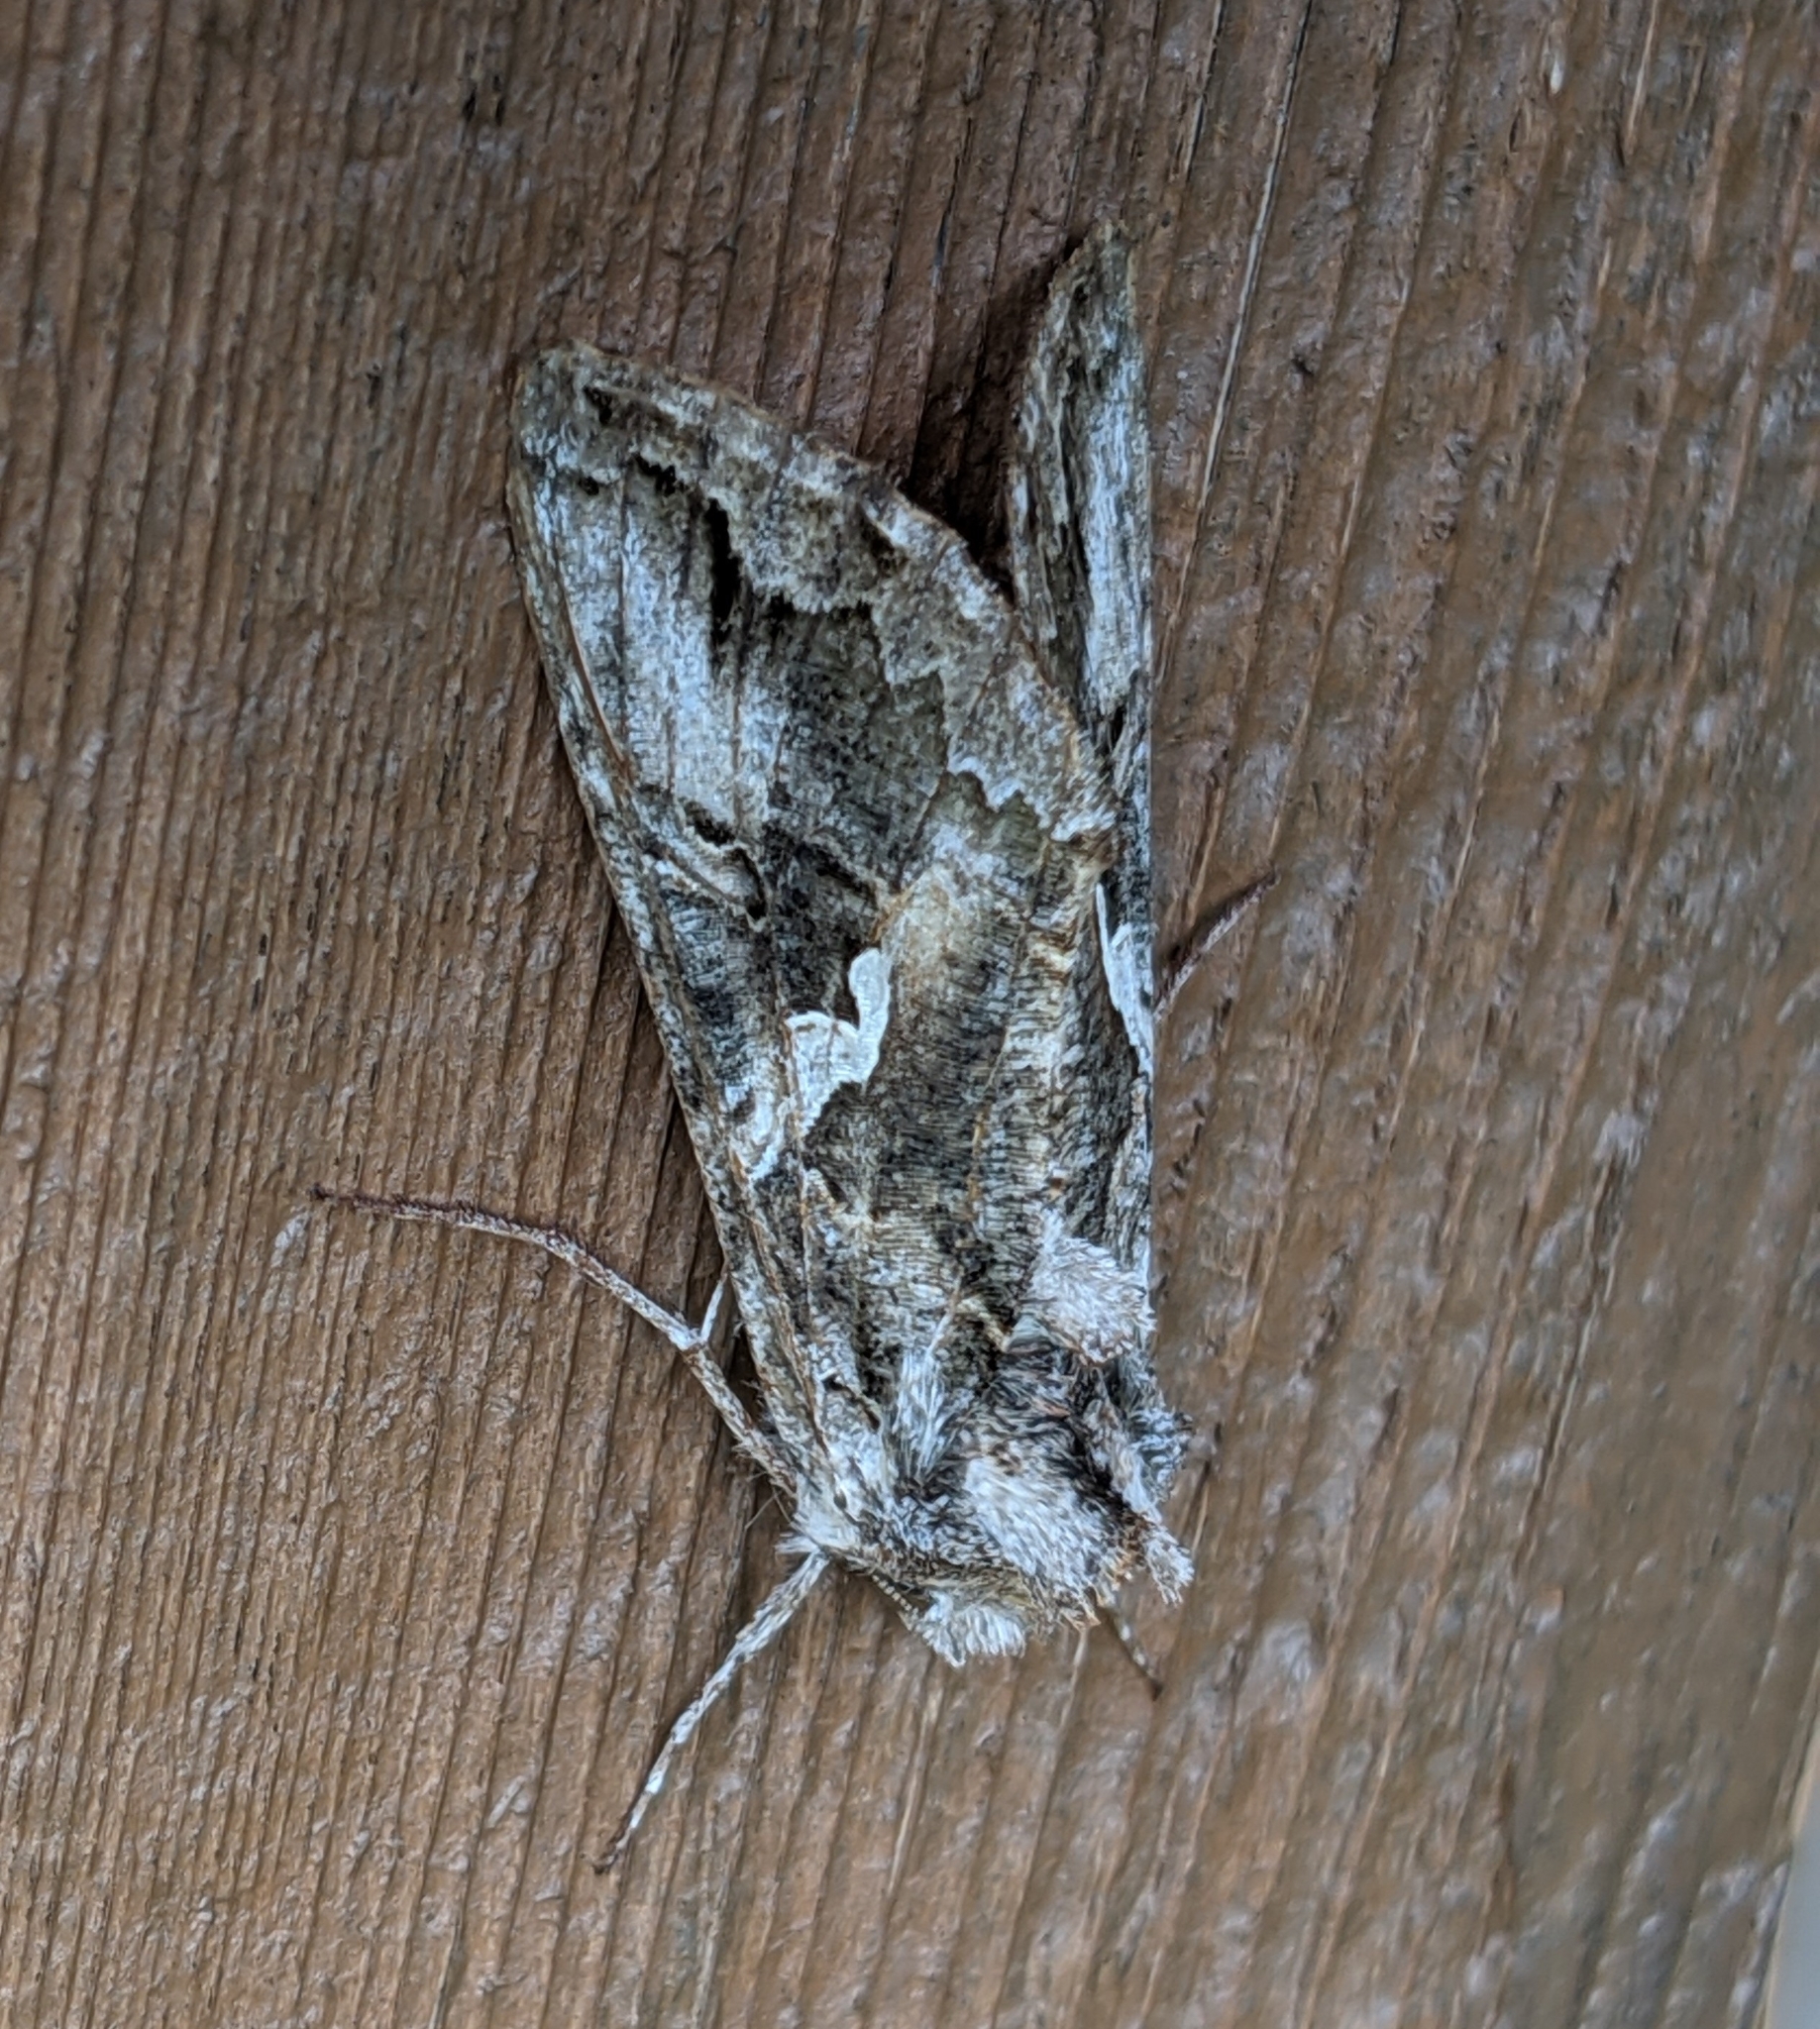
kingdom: Animalia
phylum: Arthropoda
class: Insecta
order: Lepidoptera
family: Noctuidae
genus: Autographa
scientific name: Autographa californica
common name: Alfalfa looper
